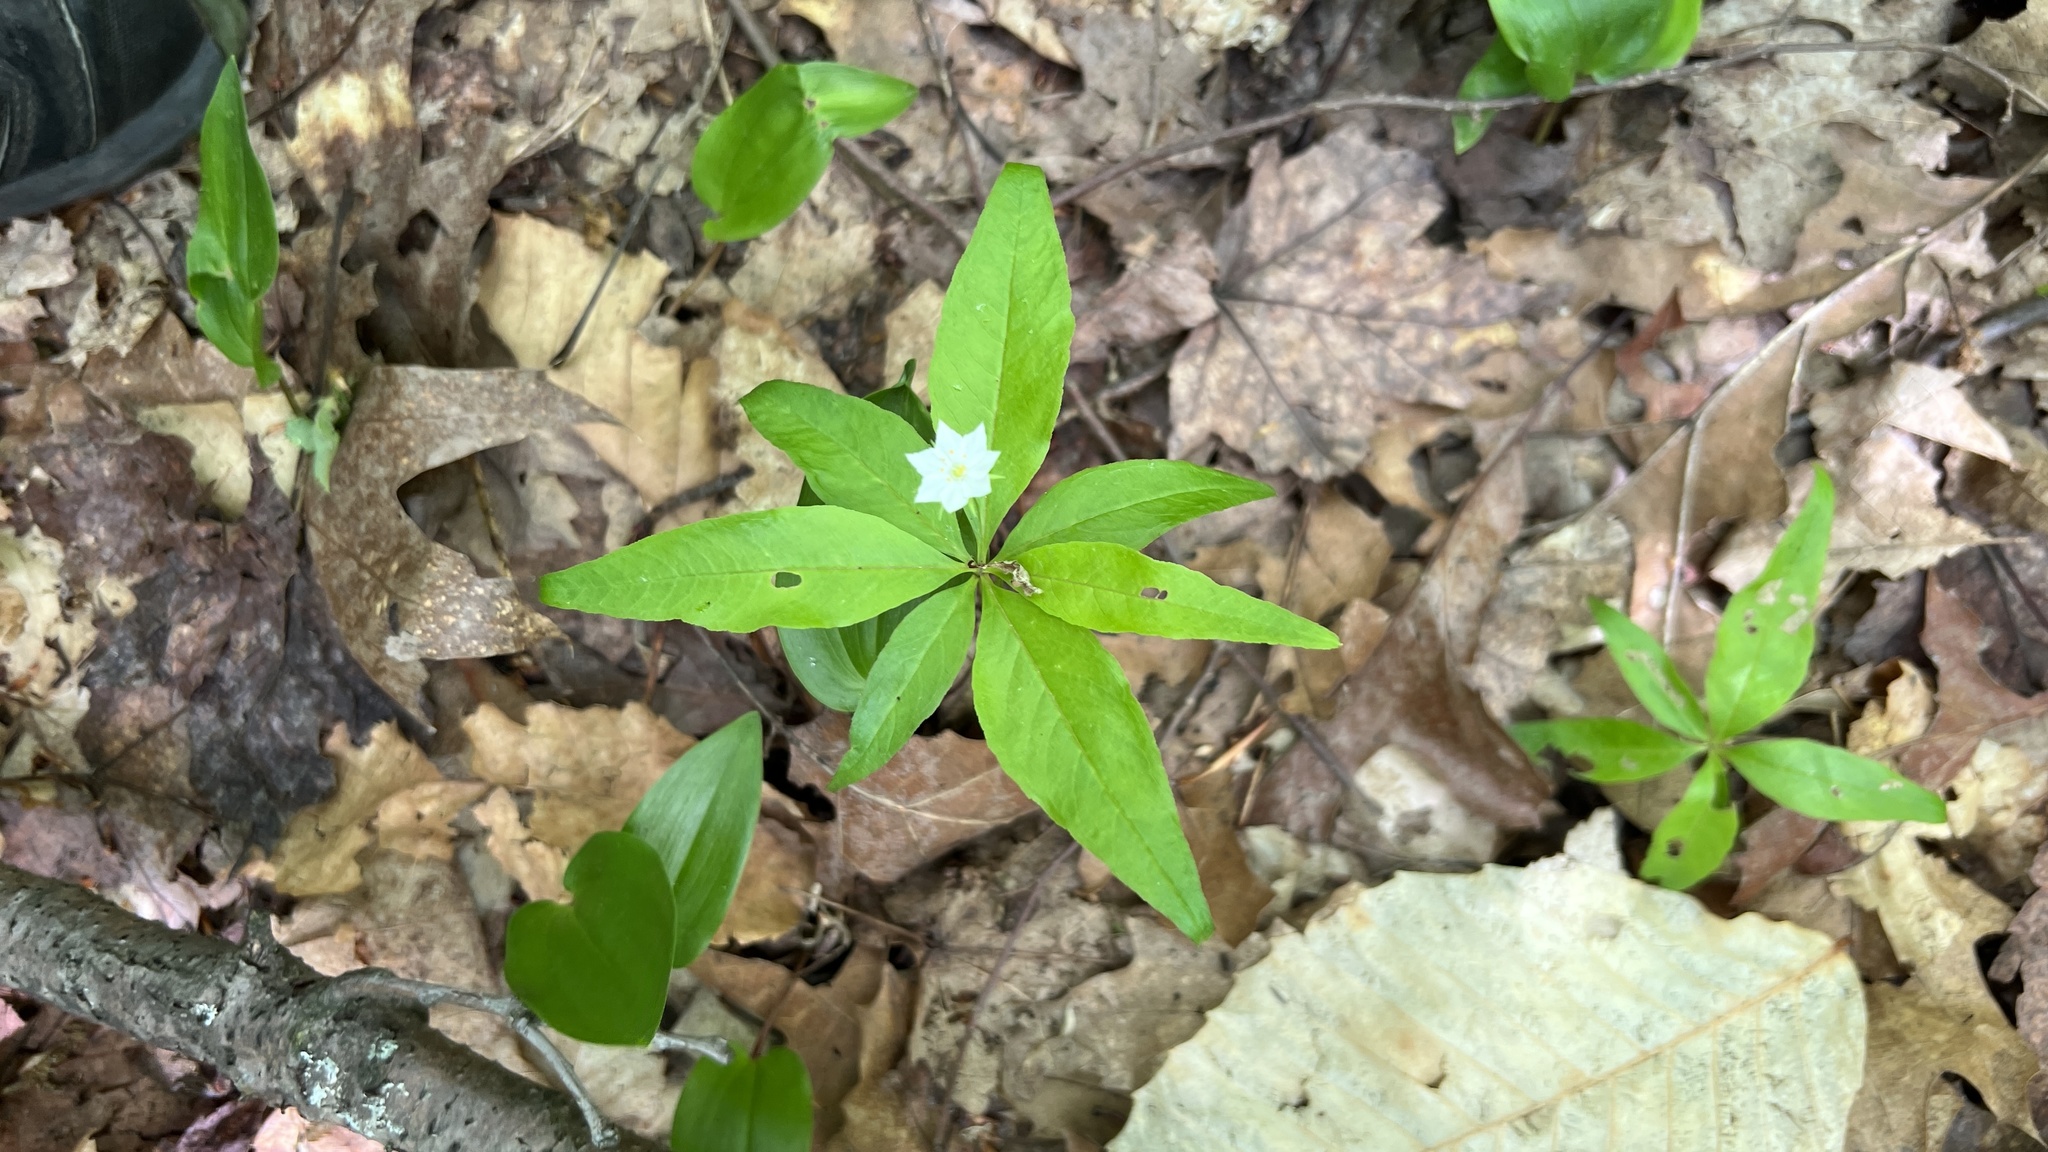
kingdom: Plantae
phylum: Tracheophyta
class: Magnoliopsida
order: Ericales
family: Primulaceae
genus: Lysimachia
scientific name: Lysimachia borealis
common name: American starflower
